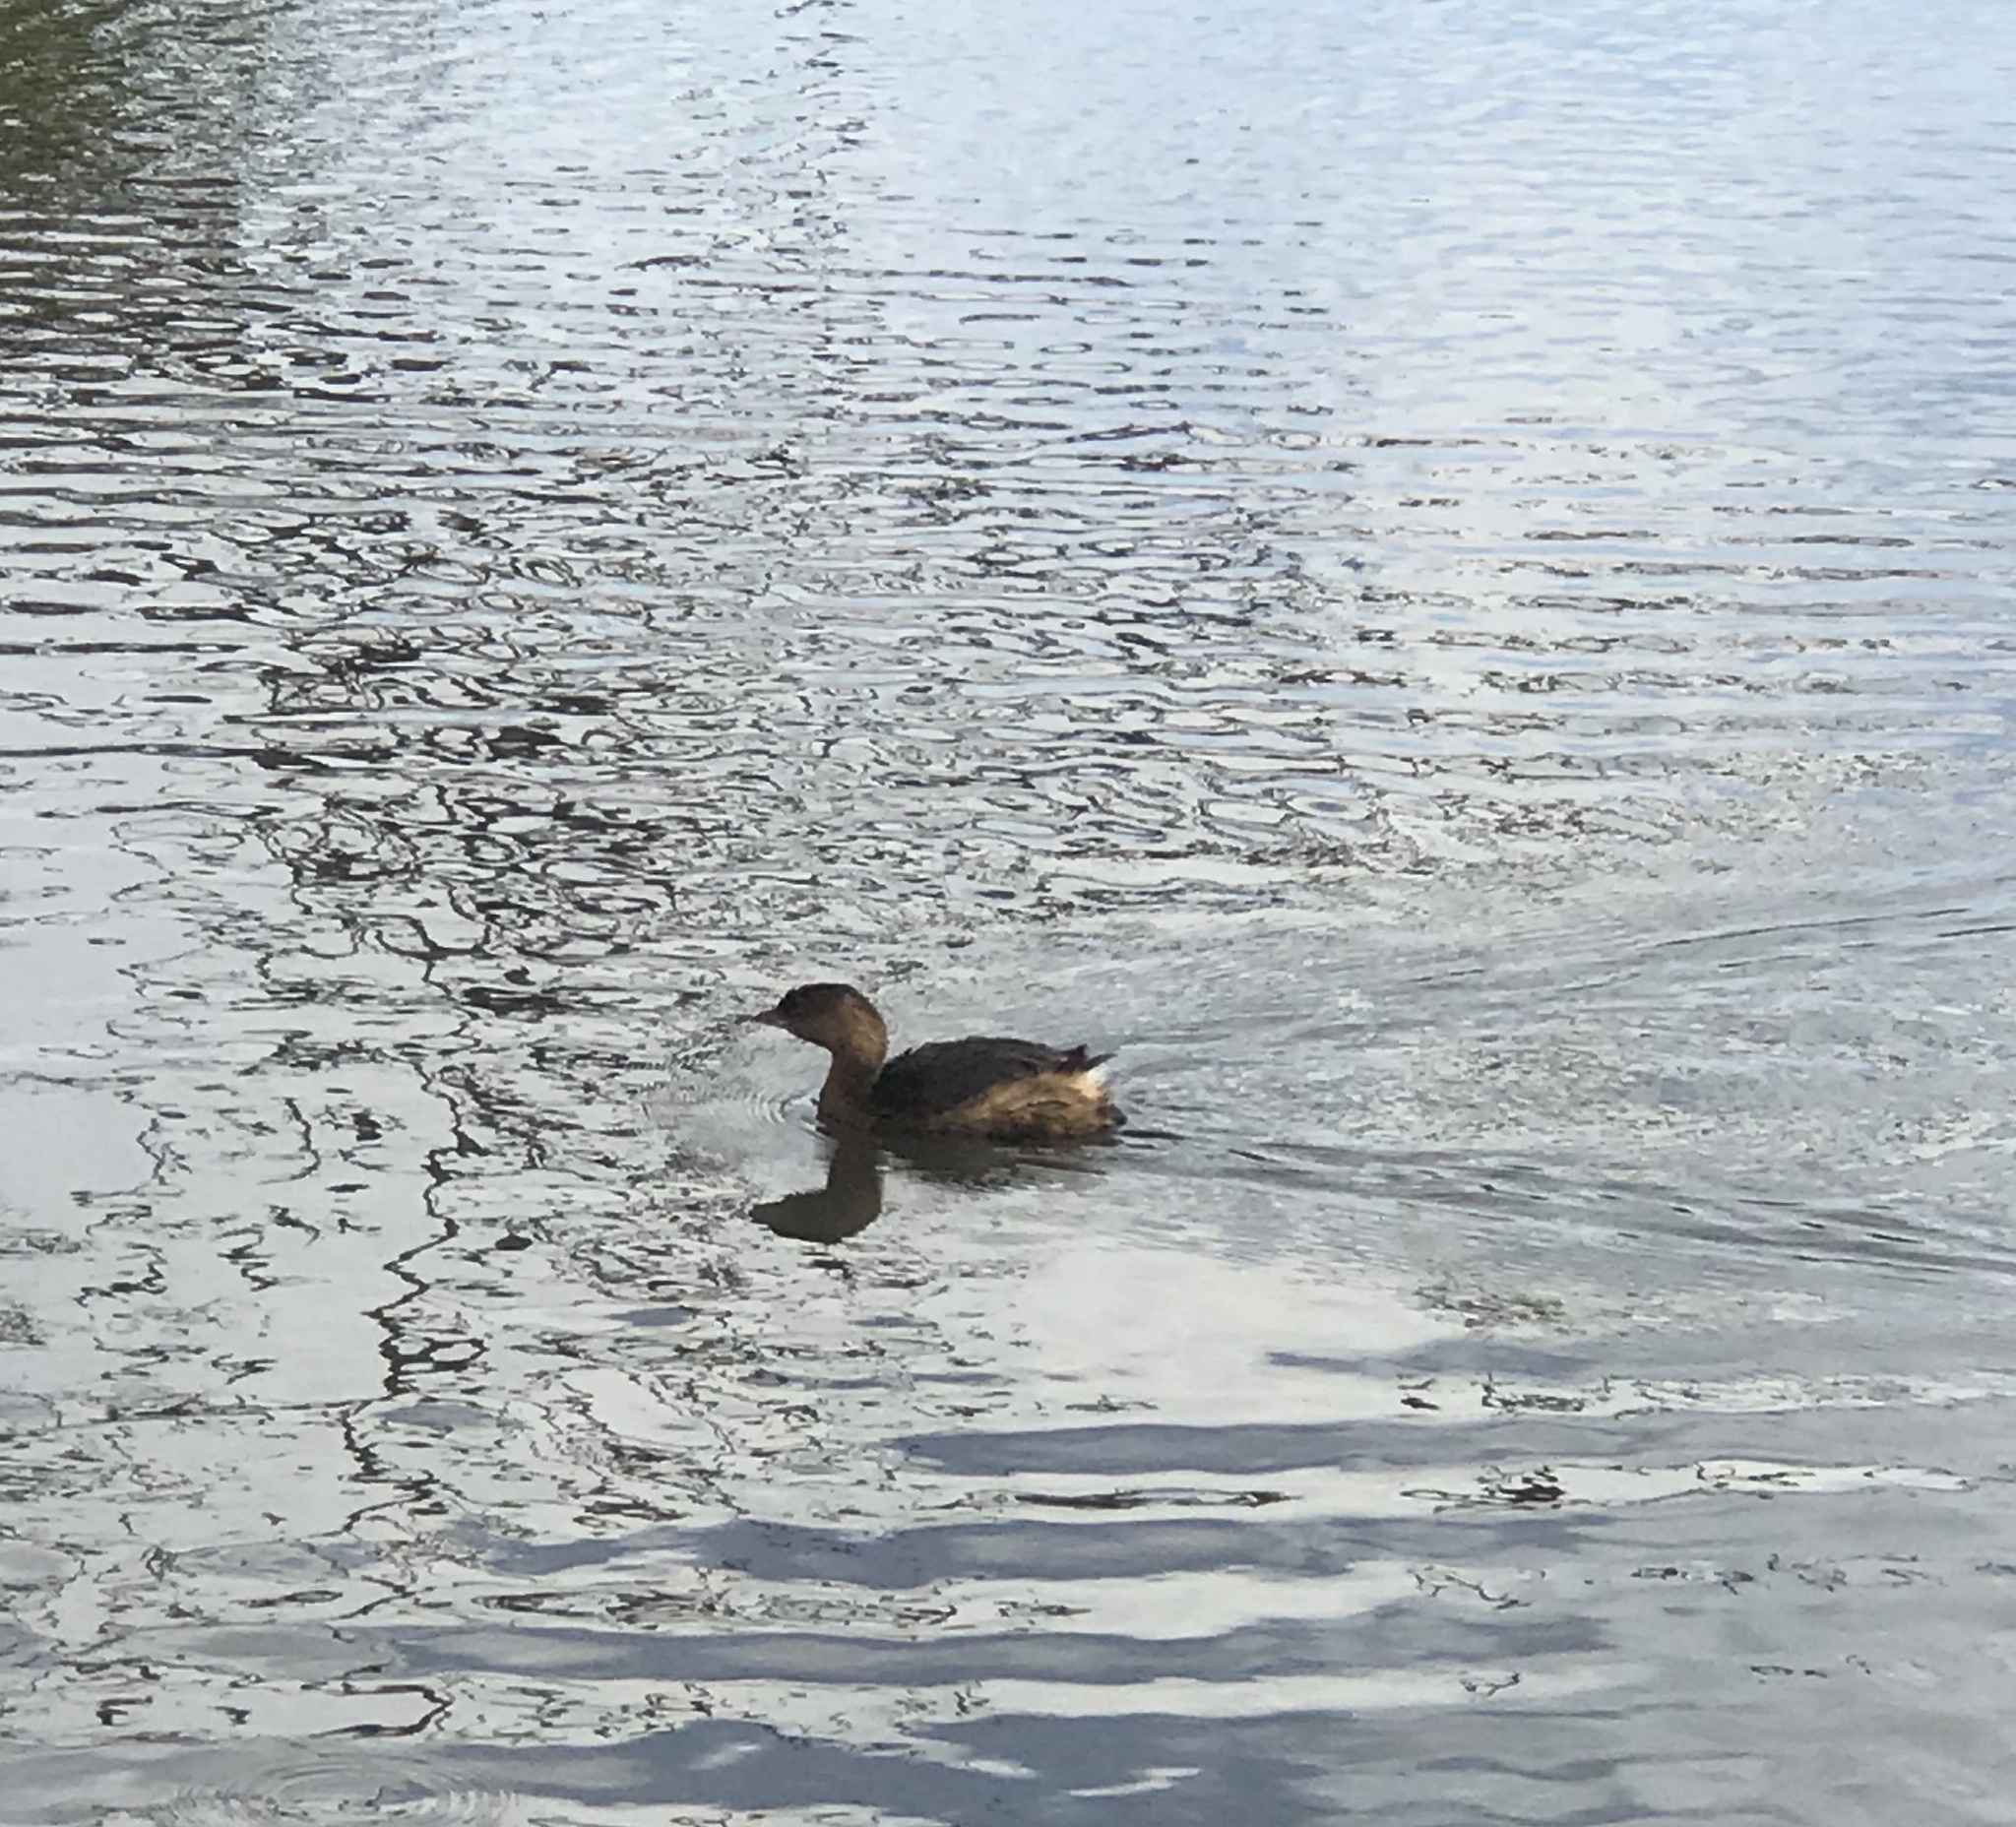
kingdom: Animalia
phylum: Chordata
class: Aves
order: Podicipediformes
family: Podicipedidae
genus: Podilymbus
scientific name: Podilymbus podiceps
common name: Pied-billed grebe
